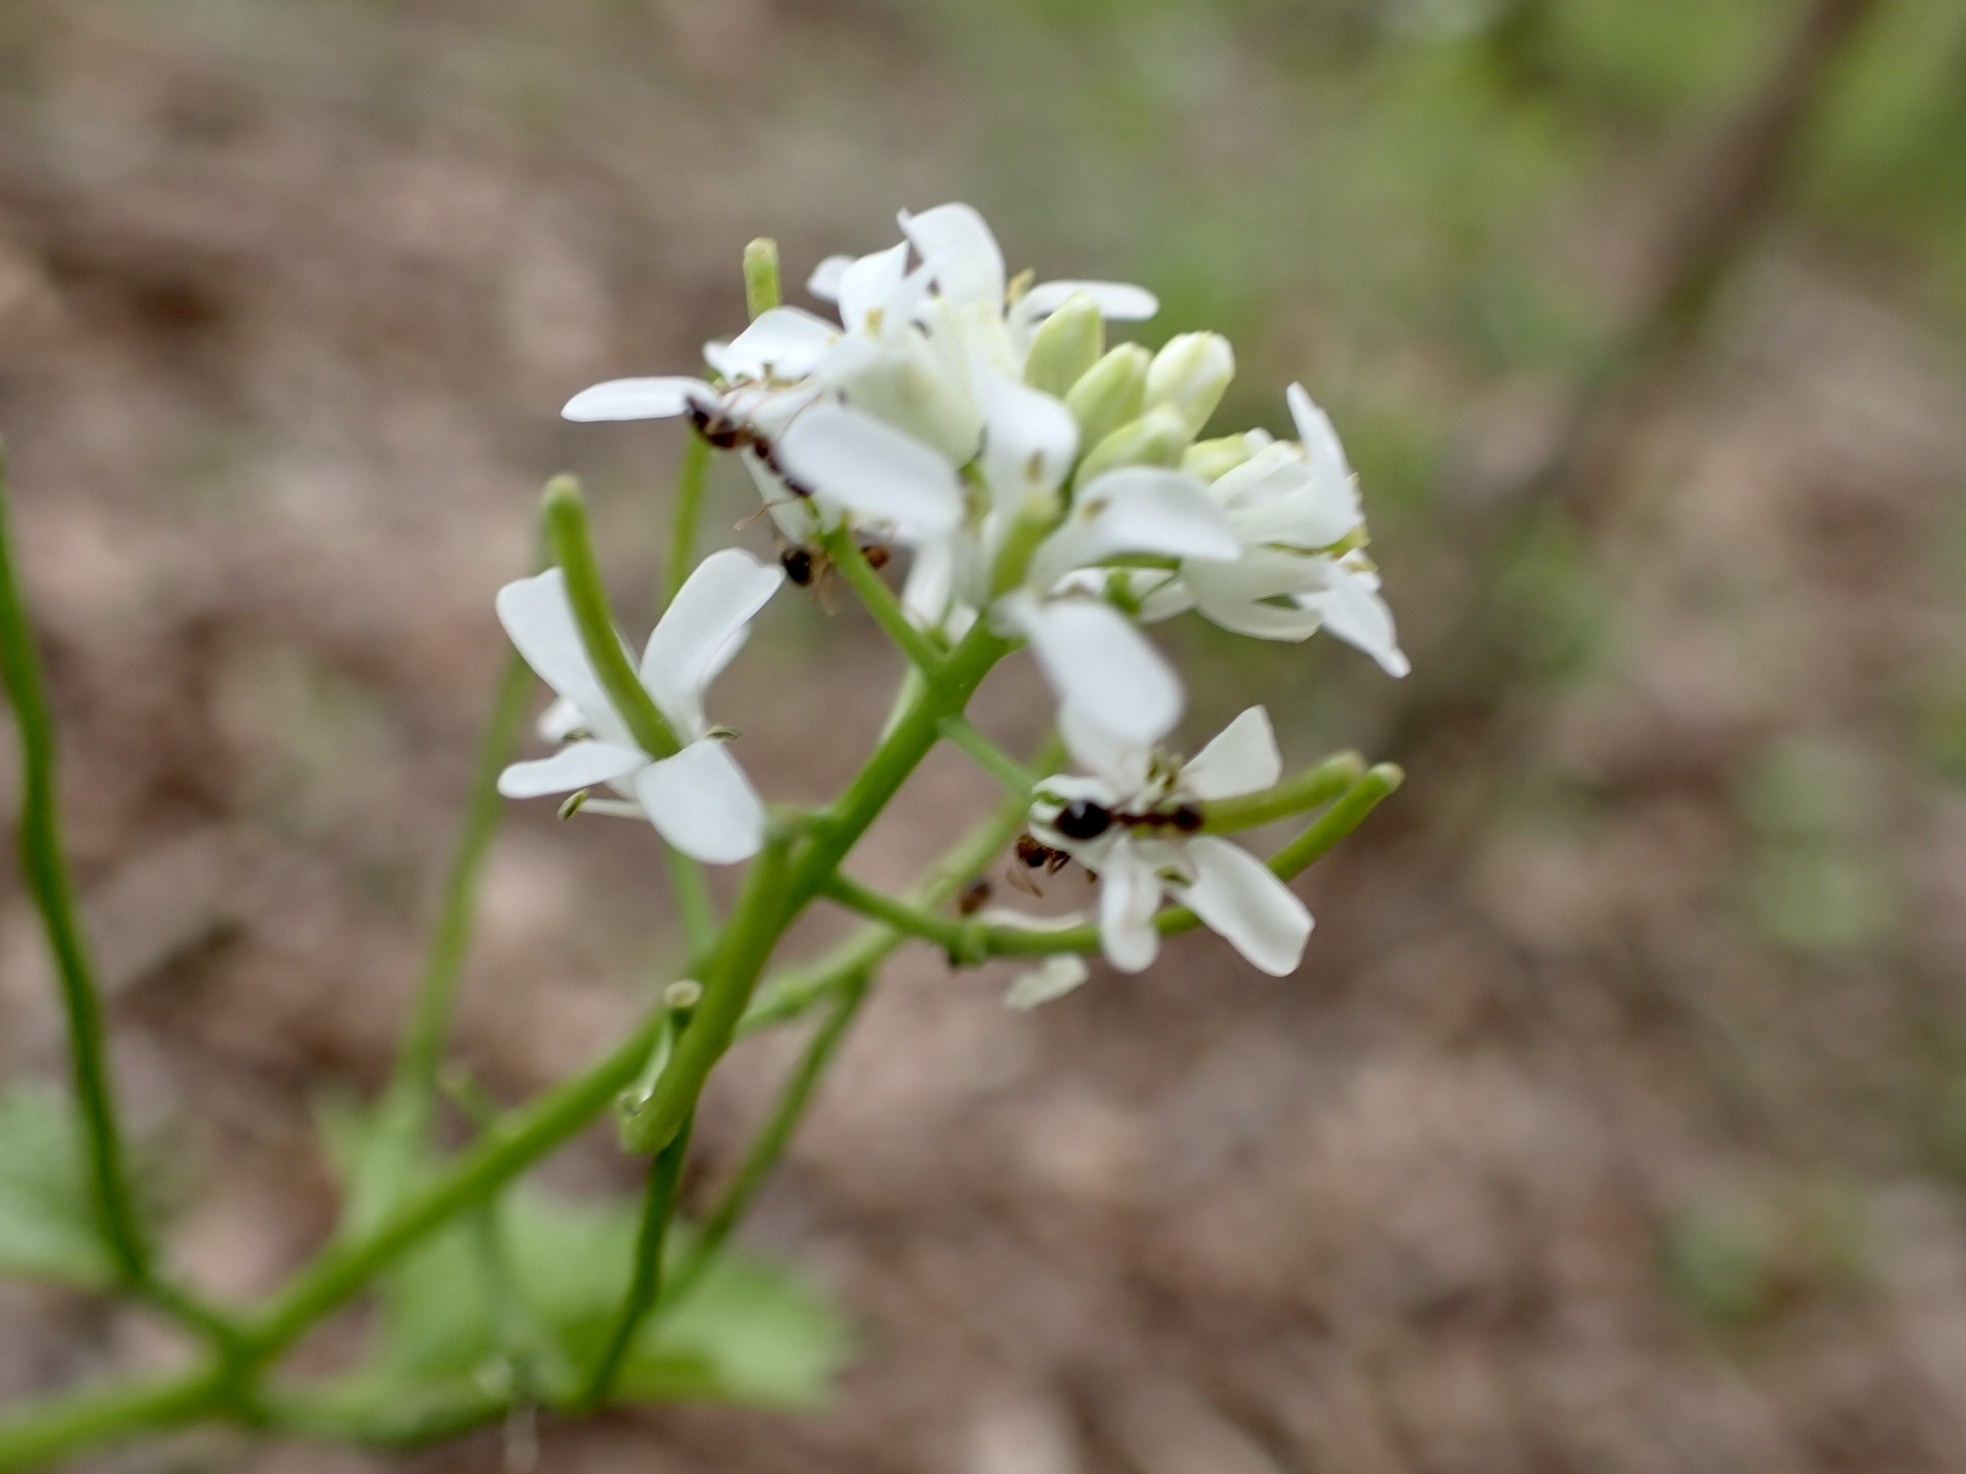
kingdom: Plantae
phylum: Tracheophyta
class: Magnoliopsida
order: Brassicales
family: Brassicaceae
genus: Alliaria
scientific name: Alliaria petiolata
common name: Garlic mustard
